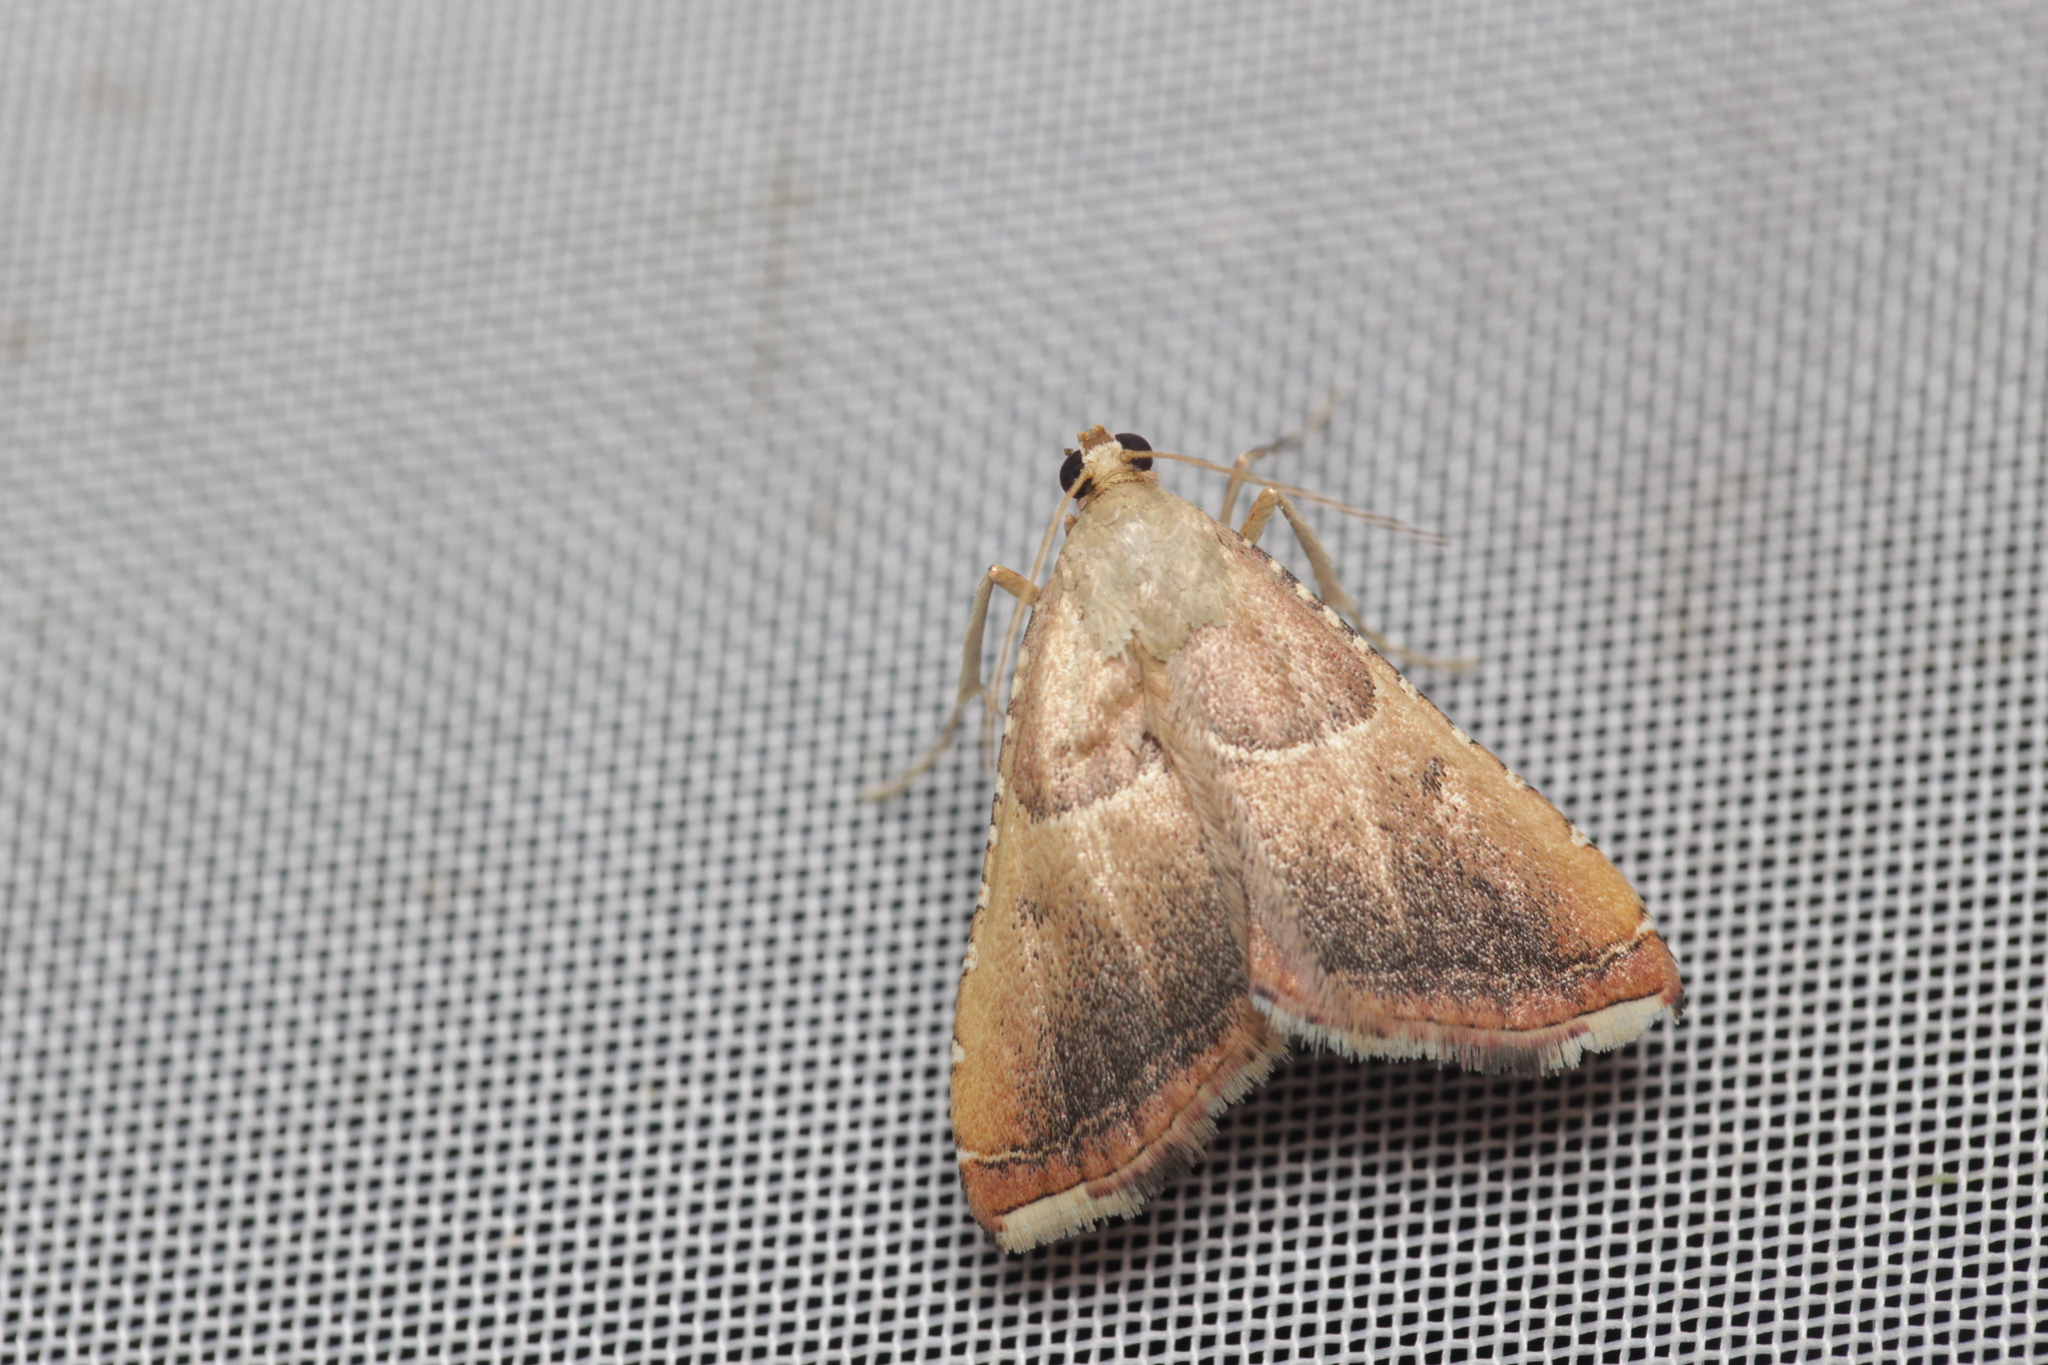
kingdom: Animalia
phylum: Arthropoda
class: Insecta
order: Lepidoptera
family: Pyralidae
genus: Endotricha
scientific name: Endotricha flammealis
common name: Rosy tabby
